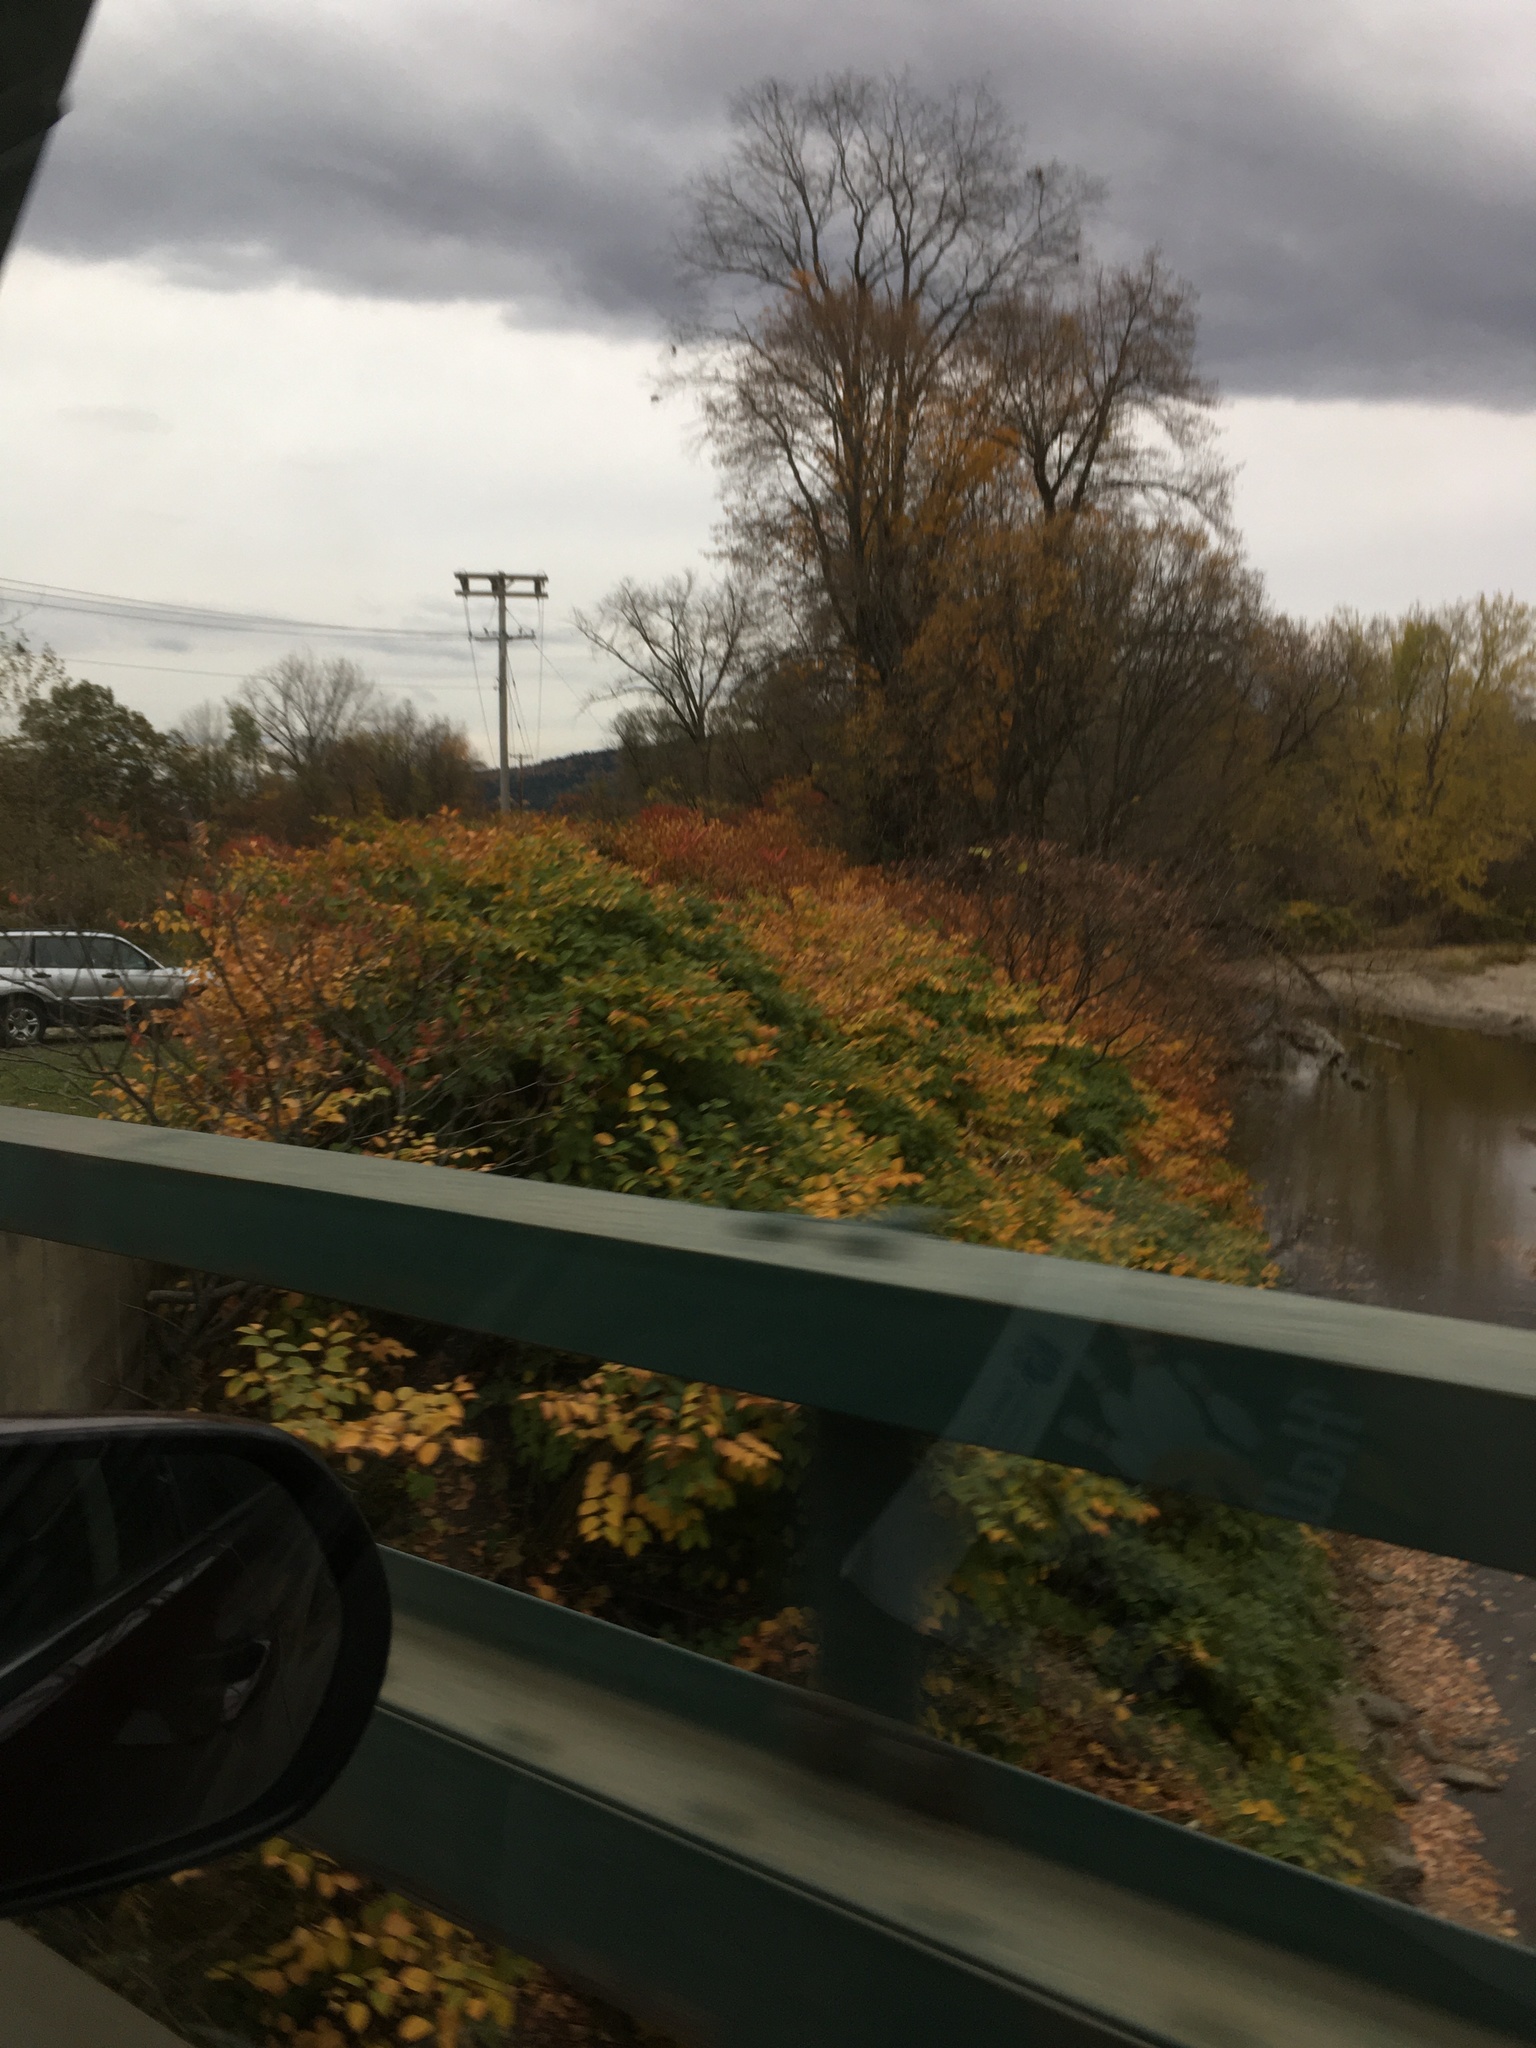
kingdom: Plantae
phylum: Tracheophyta
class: Magnoliopsida
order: Caryophyllales
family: Polygonaceae
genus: Reynoutria
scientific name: Reynoutria japonica
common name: Japanese knotweed
